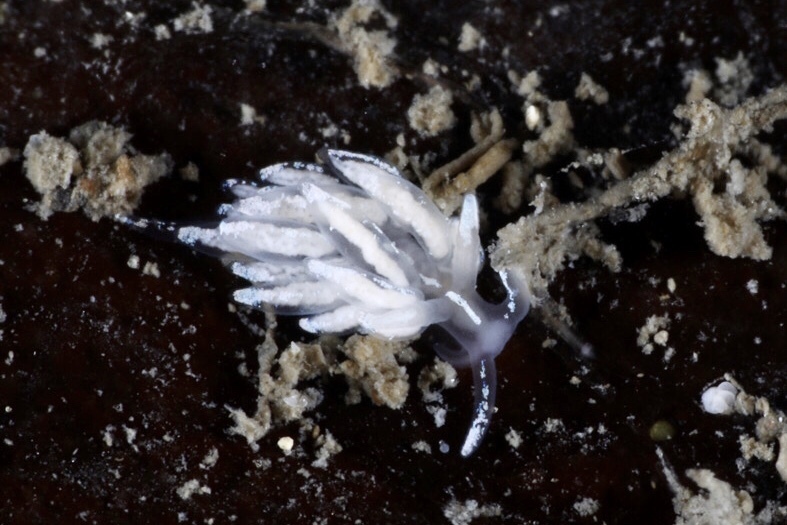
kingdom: Animalia
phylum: Mollusca
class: Gastropoda
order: Nudibranchia
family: Facelinidae
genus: Favorinus
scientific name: Favorinus blianus
